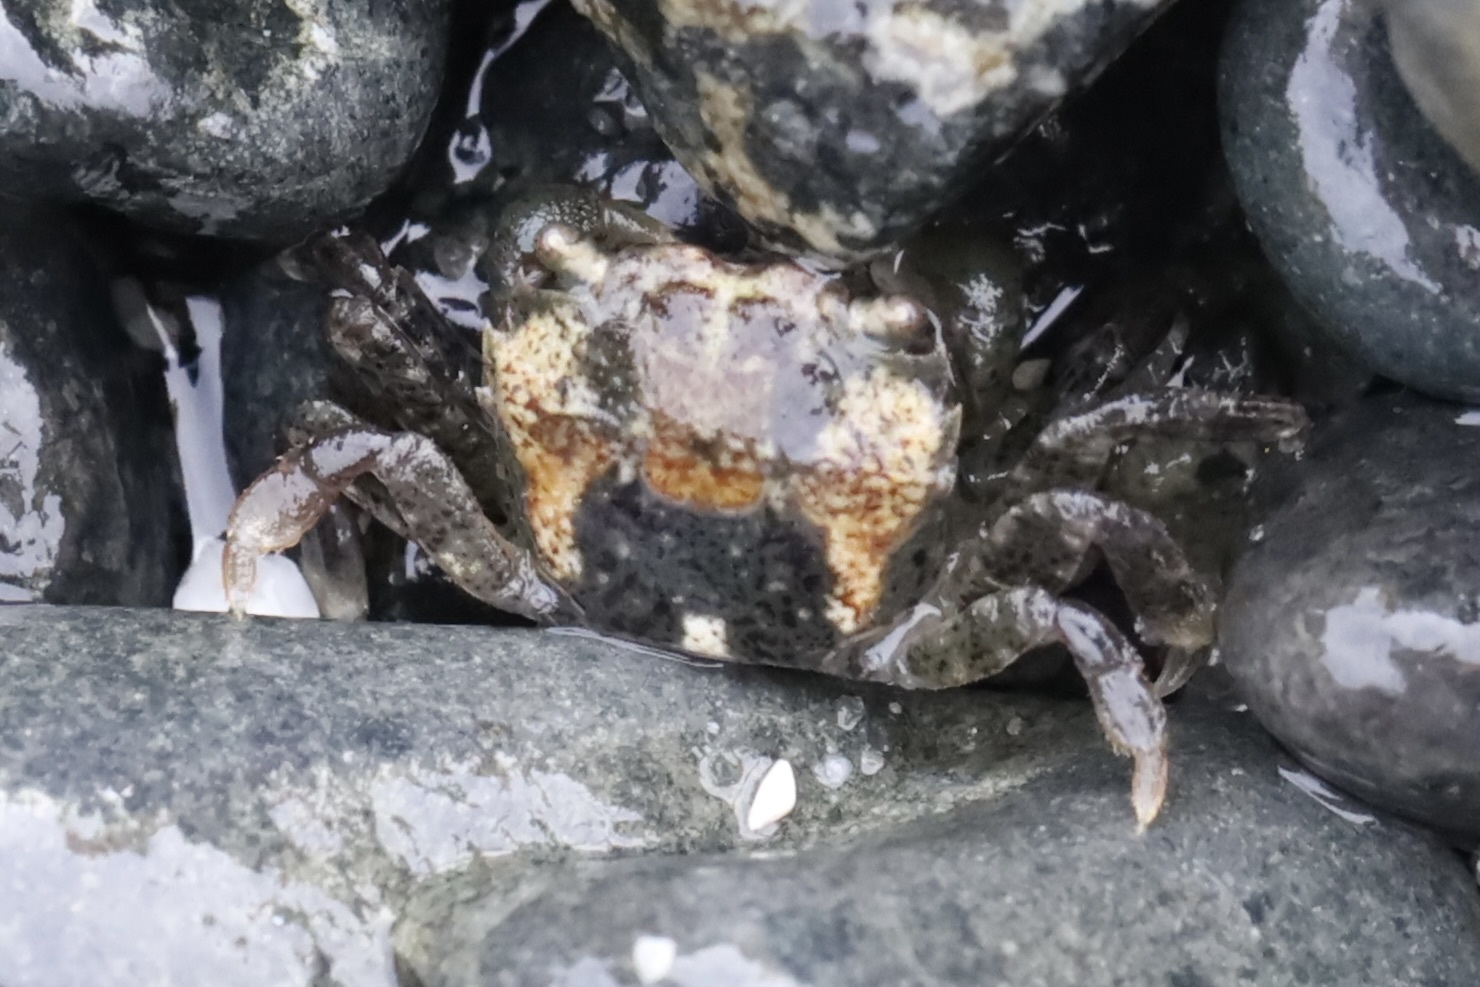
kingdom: Animalia
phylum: Arthropoda
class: Malacostraca
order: Decapoda
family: Varunidae
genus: Hemigrapsus
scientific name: Hemigrapsus oregonensis
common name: Yellow shore crab
